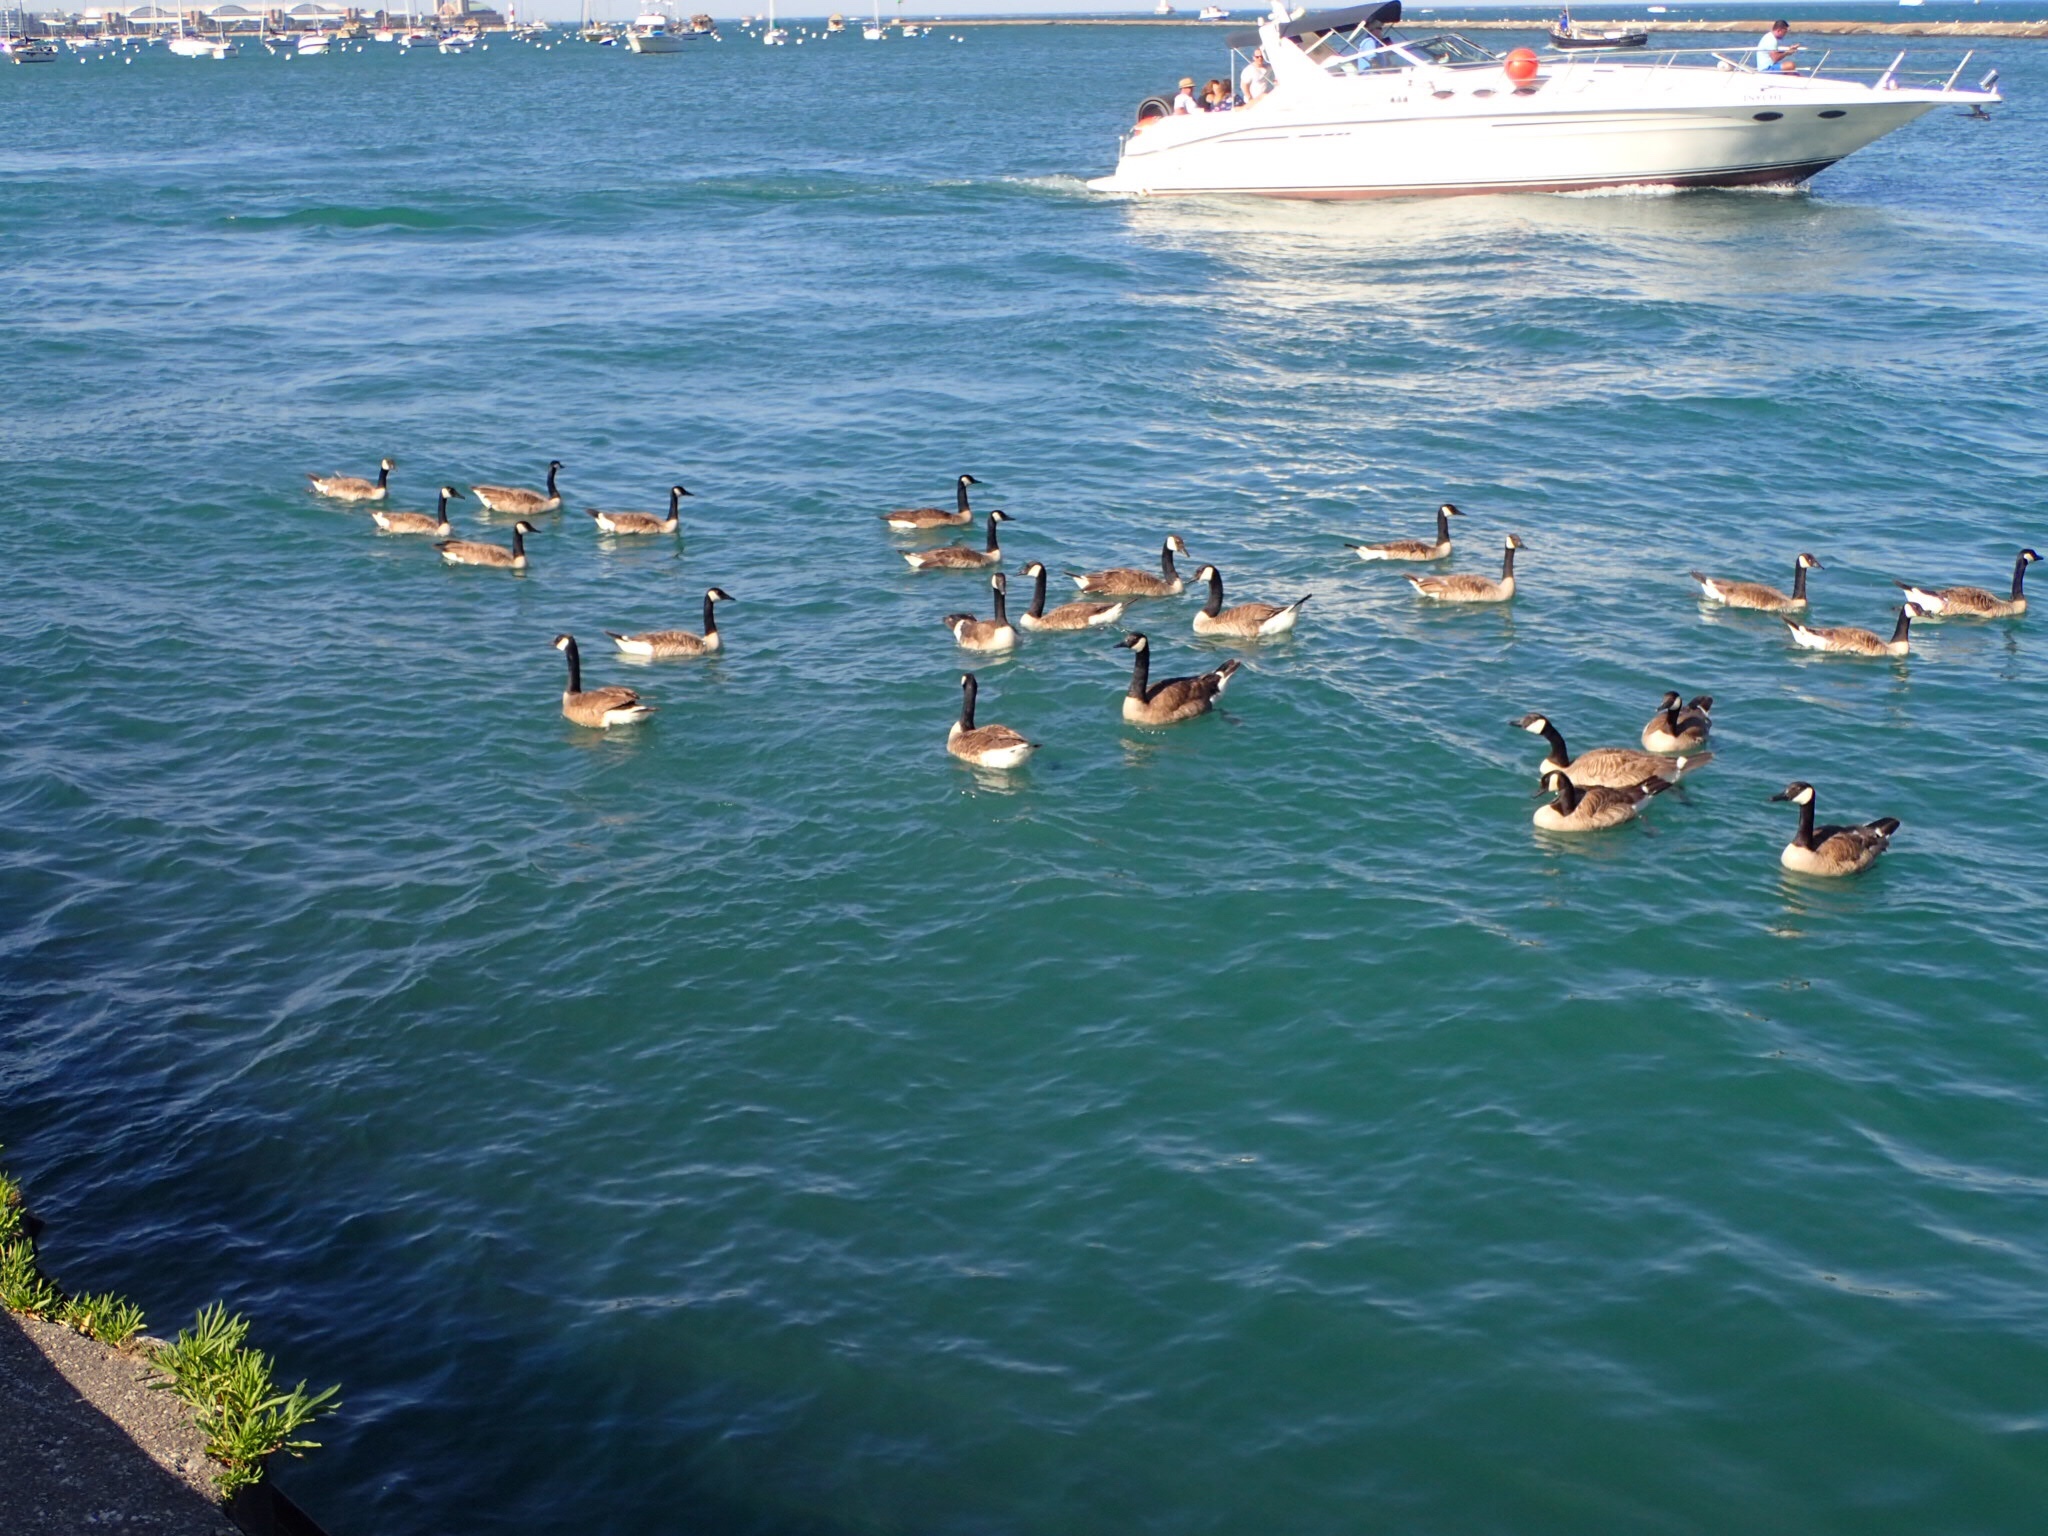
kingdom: Animalia
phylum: Chordata
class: Aves
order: Anseriformes
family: Anatidae
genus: Branta
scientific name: Branta canadensis
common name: Canada goose
